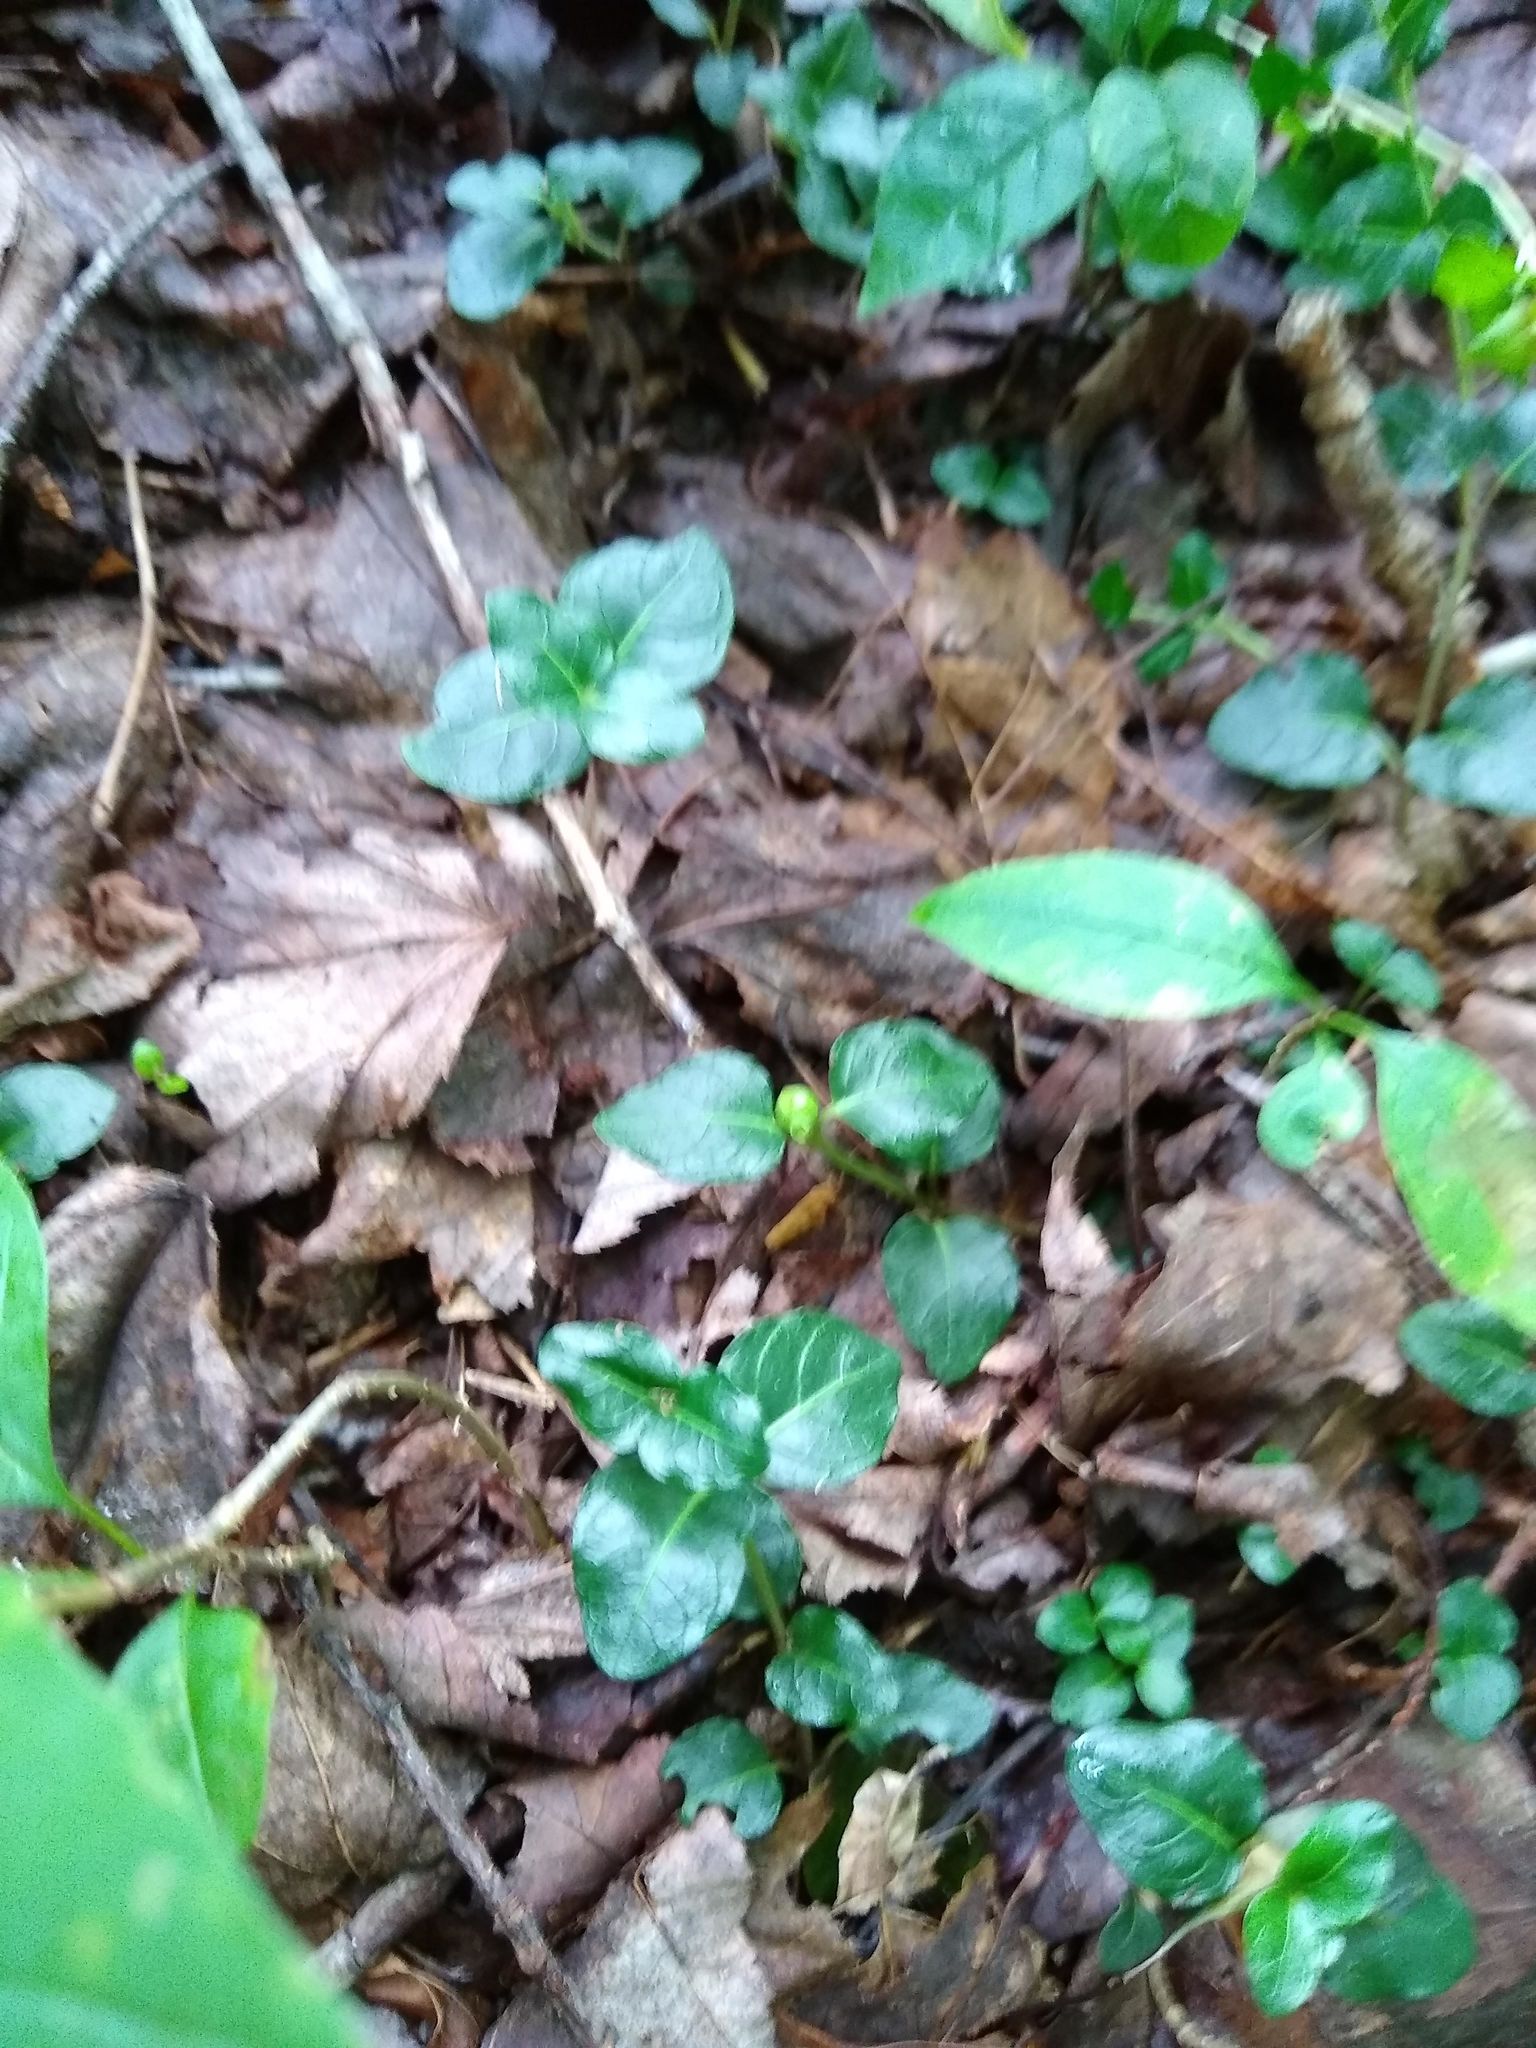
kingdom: Plantae
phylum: Tracheophyta
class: Magnoliopsida
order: Gentianales
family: Rubiaceae
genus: Mitchella
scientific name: Mitchella repens
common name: Partridge-berry
